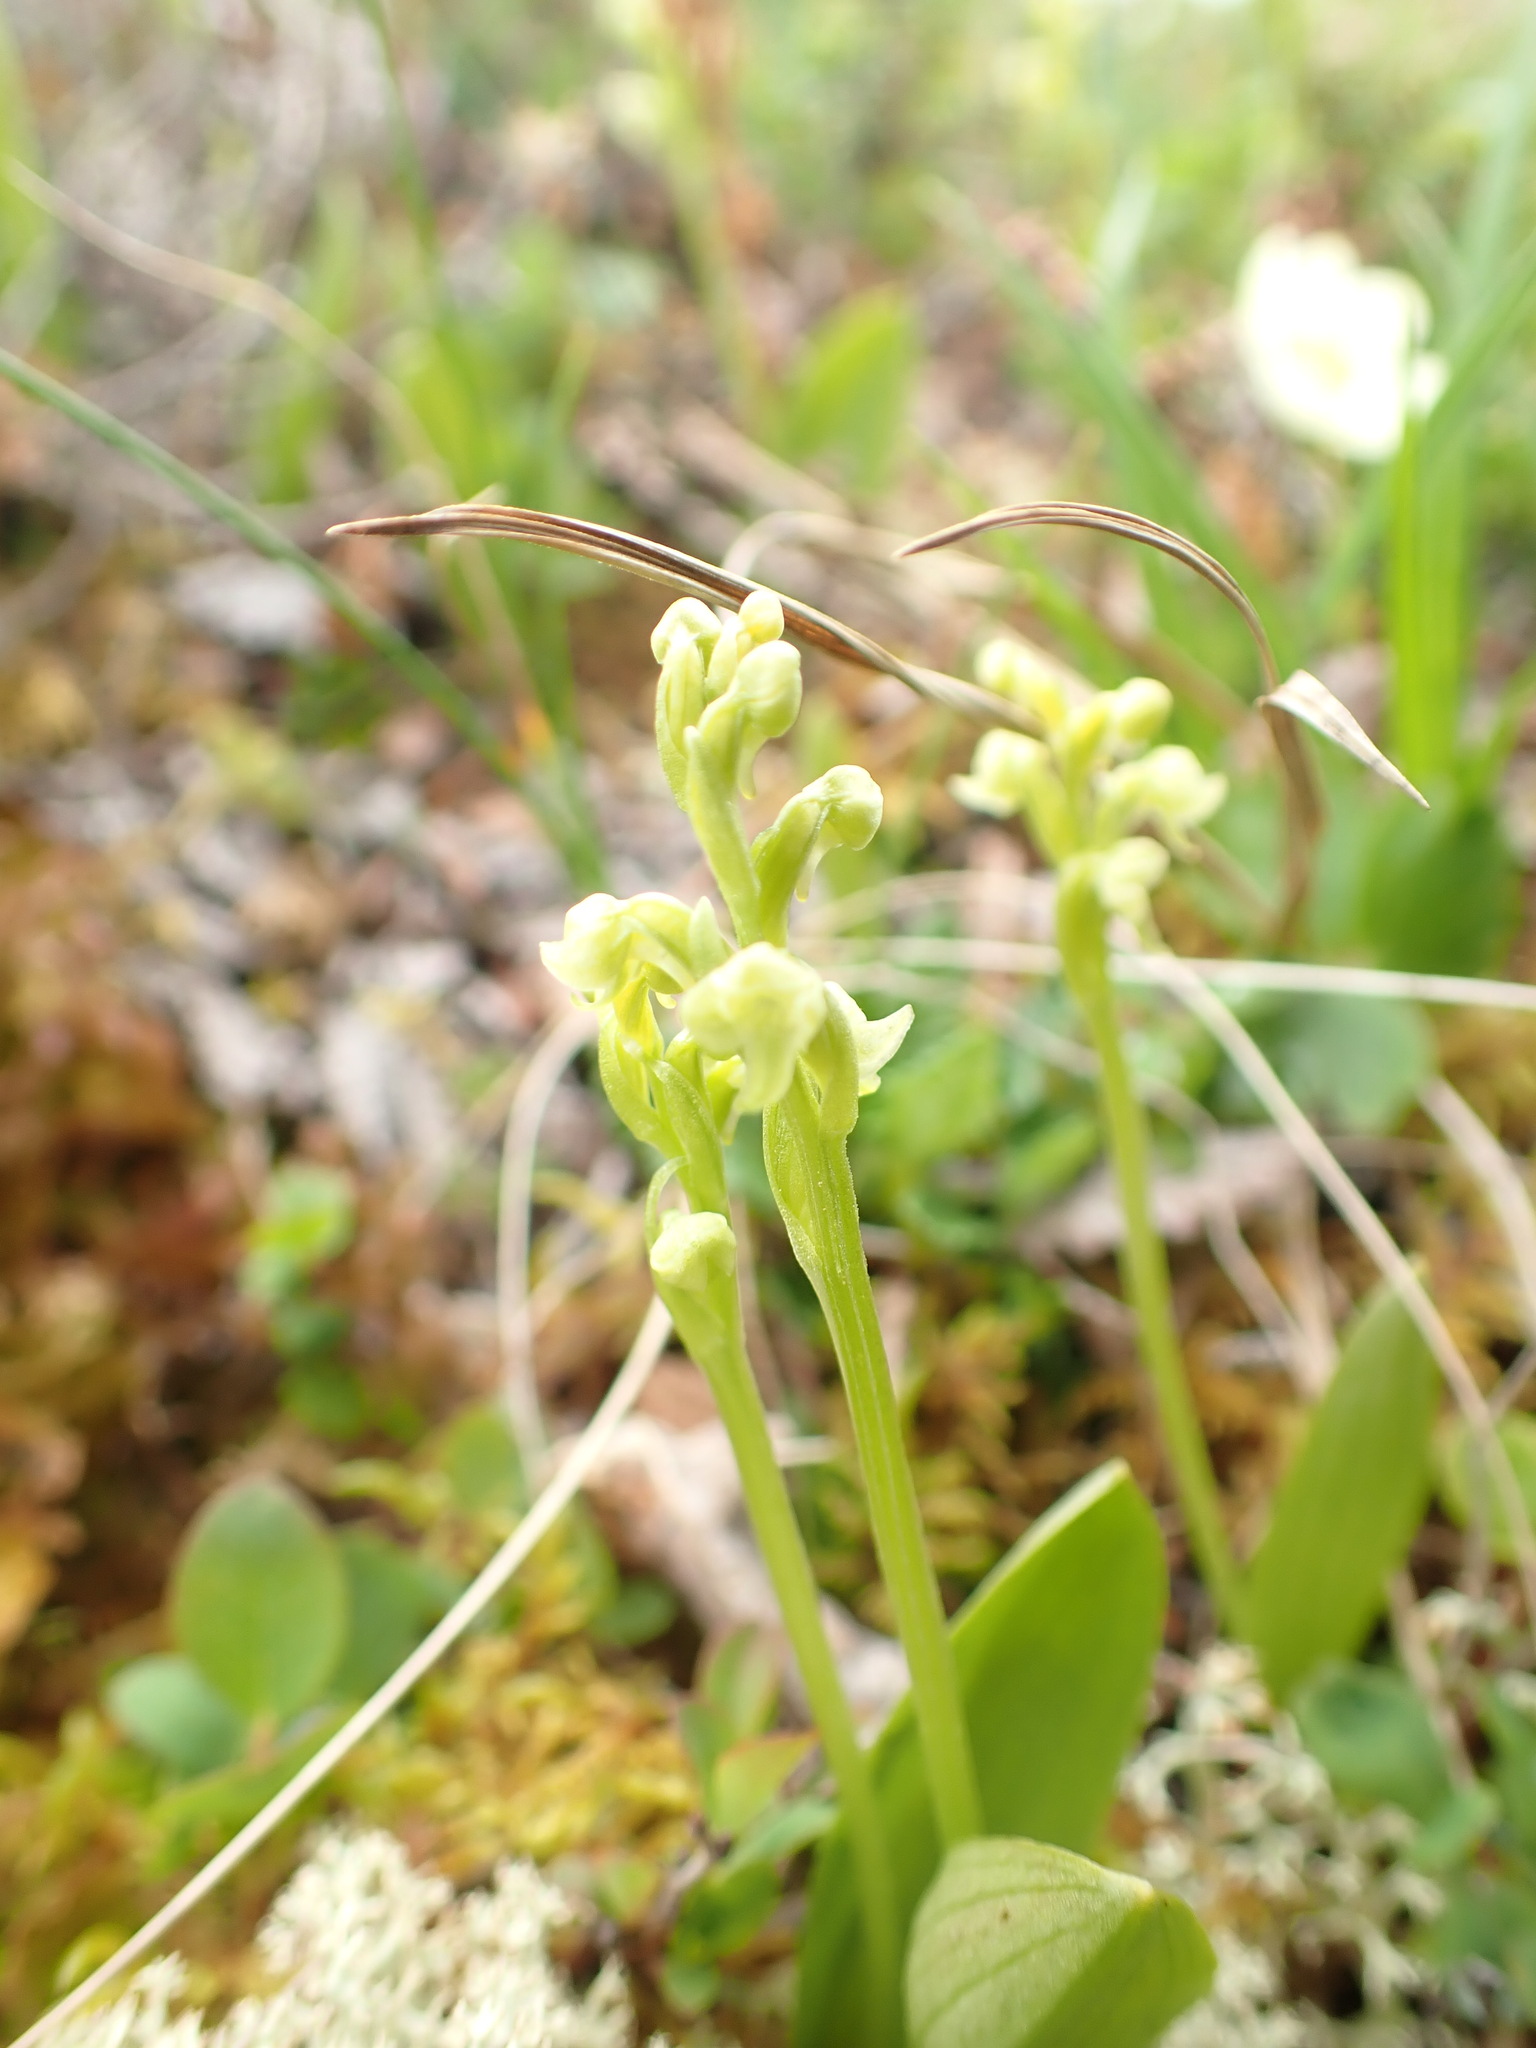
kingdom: Plantae
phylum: Tracheophyta
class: Liliopsida
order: Asparagales
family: Orchidaceae
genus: Platanthera
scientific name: Platanthera obtusata
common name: Blunt bog orchid
